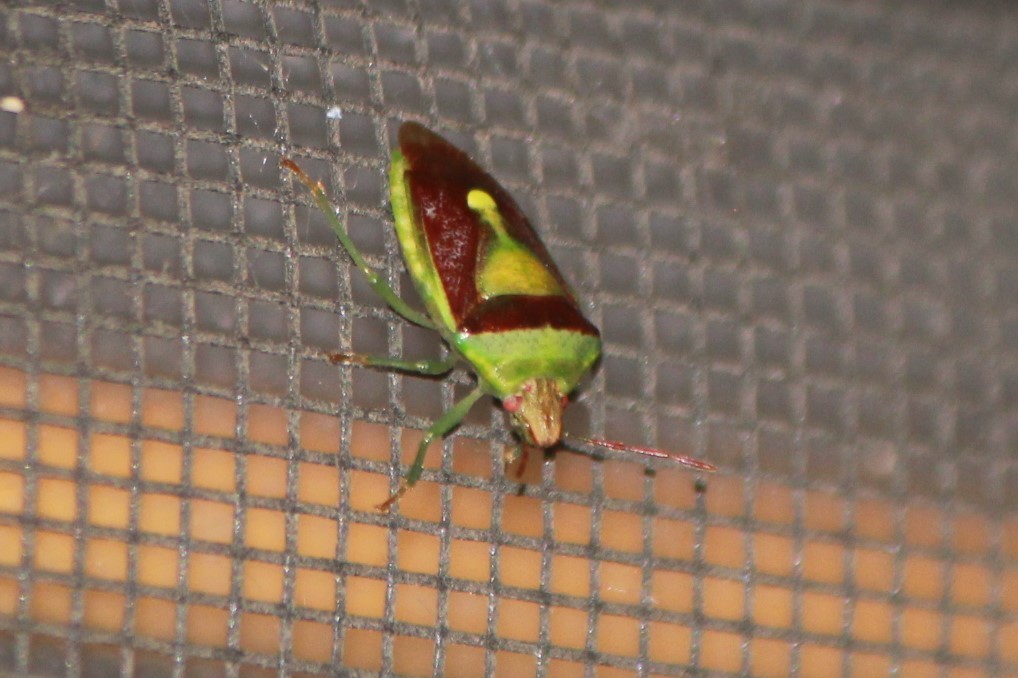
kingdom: Animalia
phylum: Arthropoda
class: Insecta
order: Hemiptera
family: Pentatomidae
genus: Banasa
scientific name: Banasa dimidiata
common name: Green burgundy stink bug
